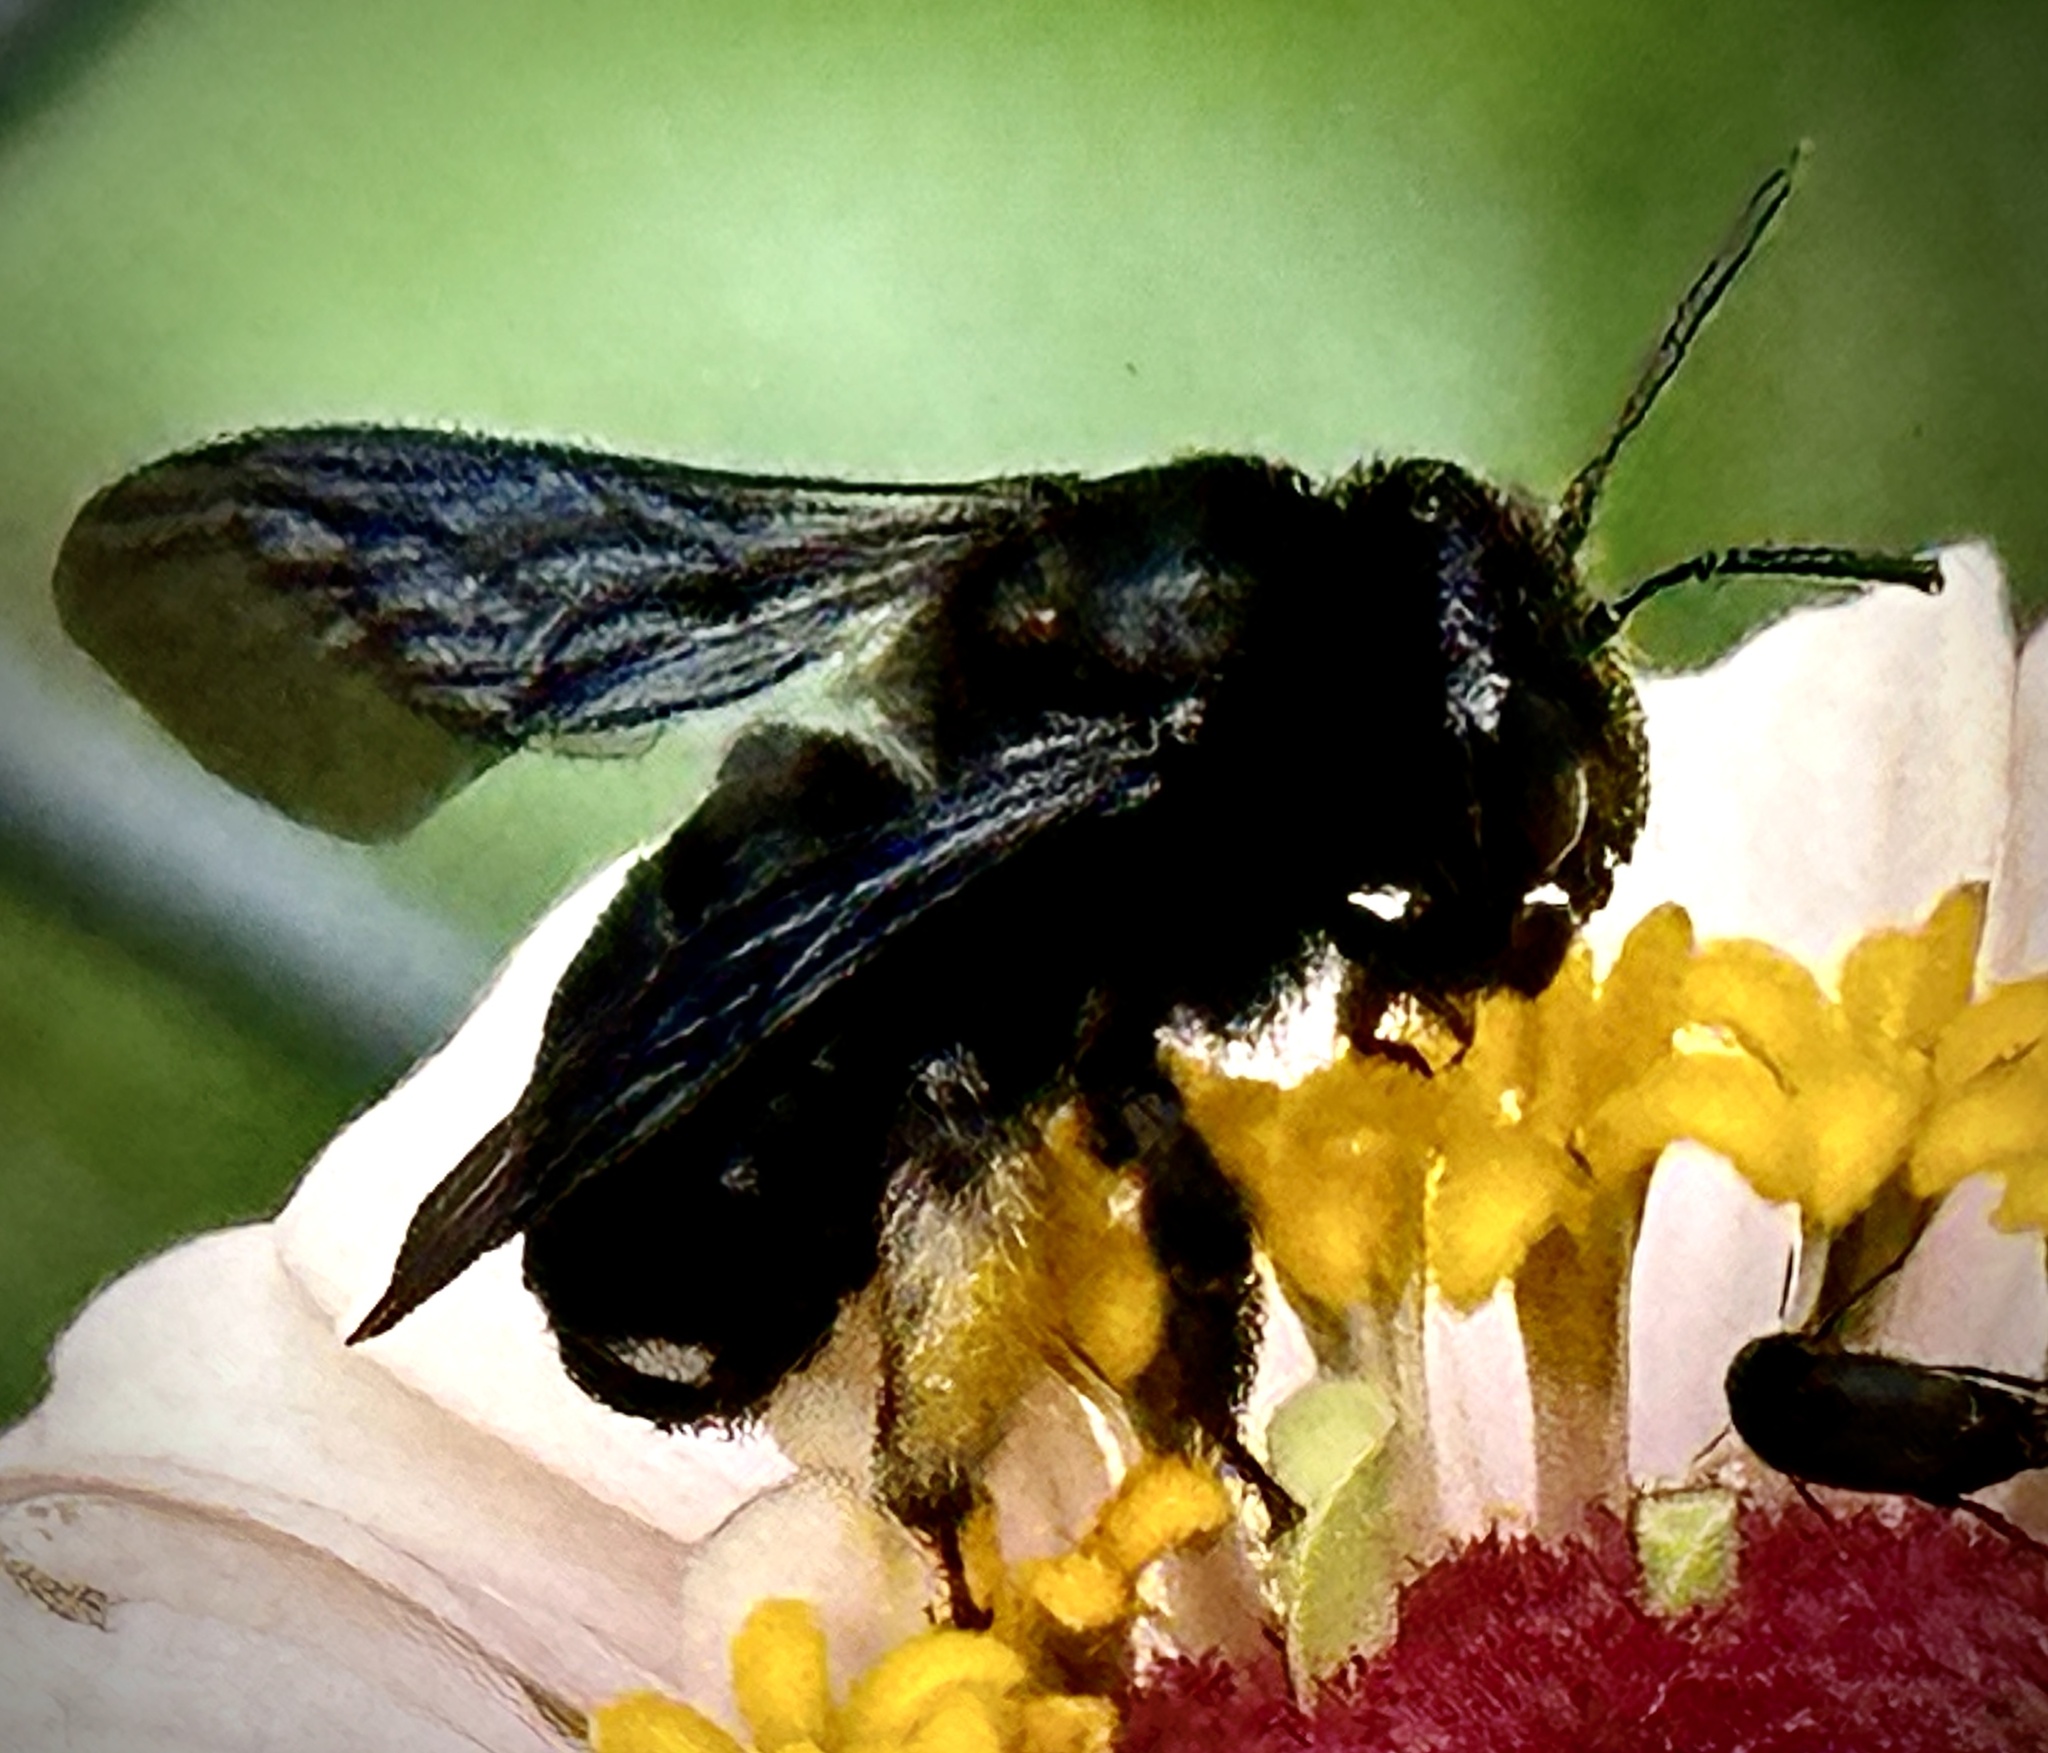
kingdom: Animalia
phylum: Arthropoda
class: Insecta
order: Hymenoptera
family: Apidae
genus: Melissodes
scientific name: Melissodes bimaculatus
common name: Two-spotted long-horned bee
